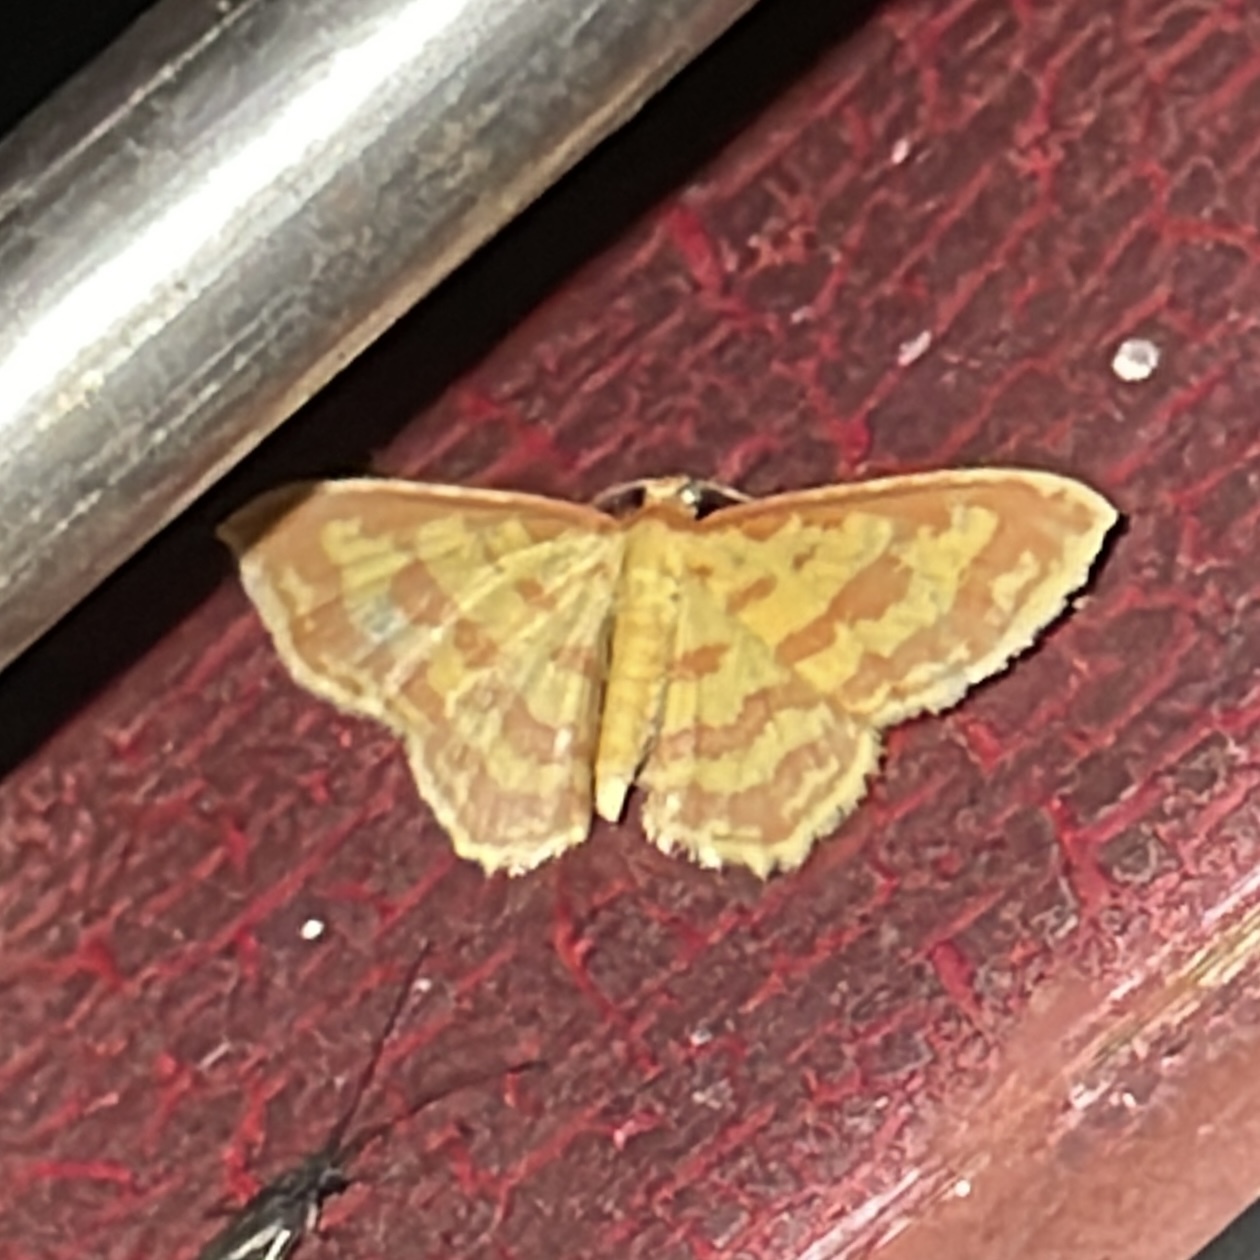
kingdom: Animalia
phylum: Arthropoda
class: Insecta
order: Lepidoptera
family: Geometridae
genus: Eois
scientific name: Eois binaria
